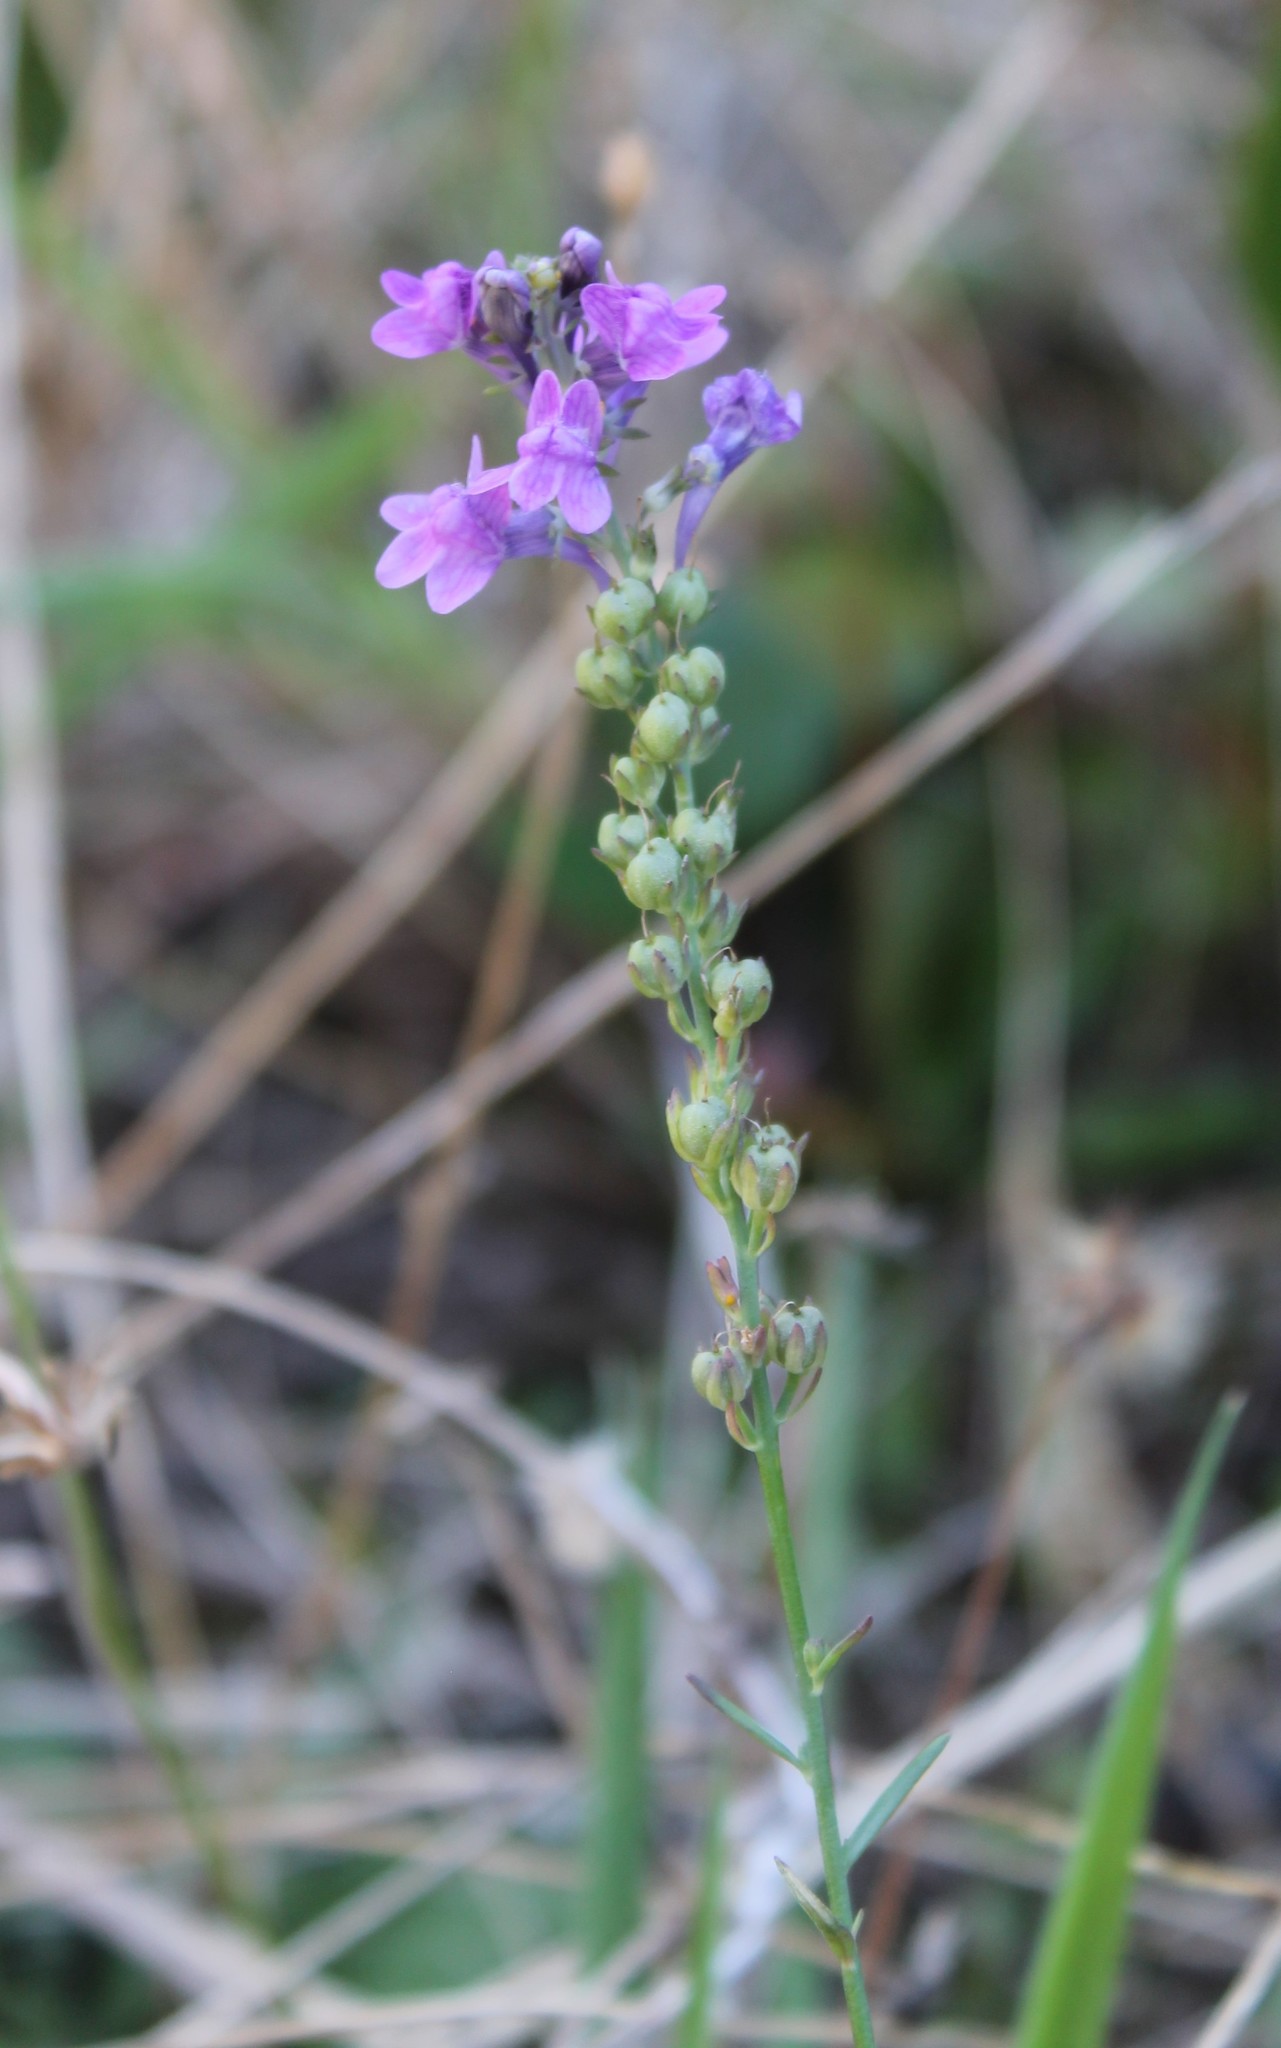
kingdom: Plantae
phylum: Tracheophyta
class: Magnoliopsida
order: Lamiales
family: Plantaginaceae
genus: Linaria
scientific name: Linaria purpurea
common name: Purple toadflax
